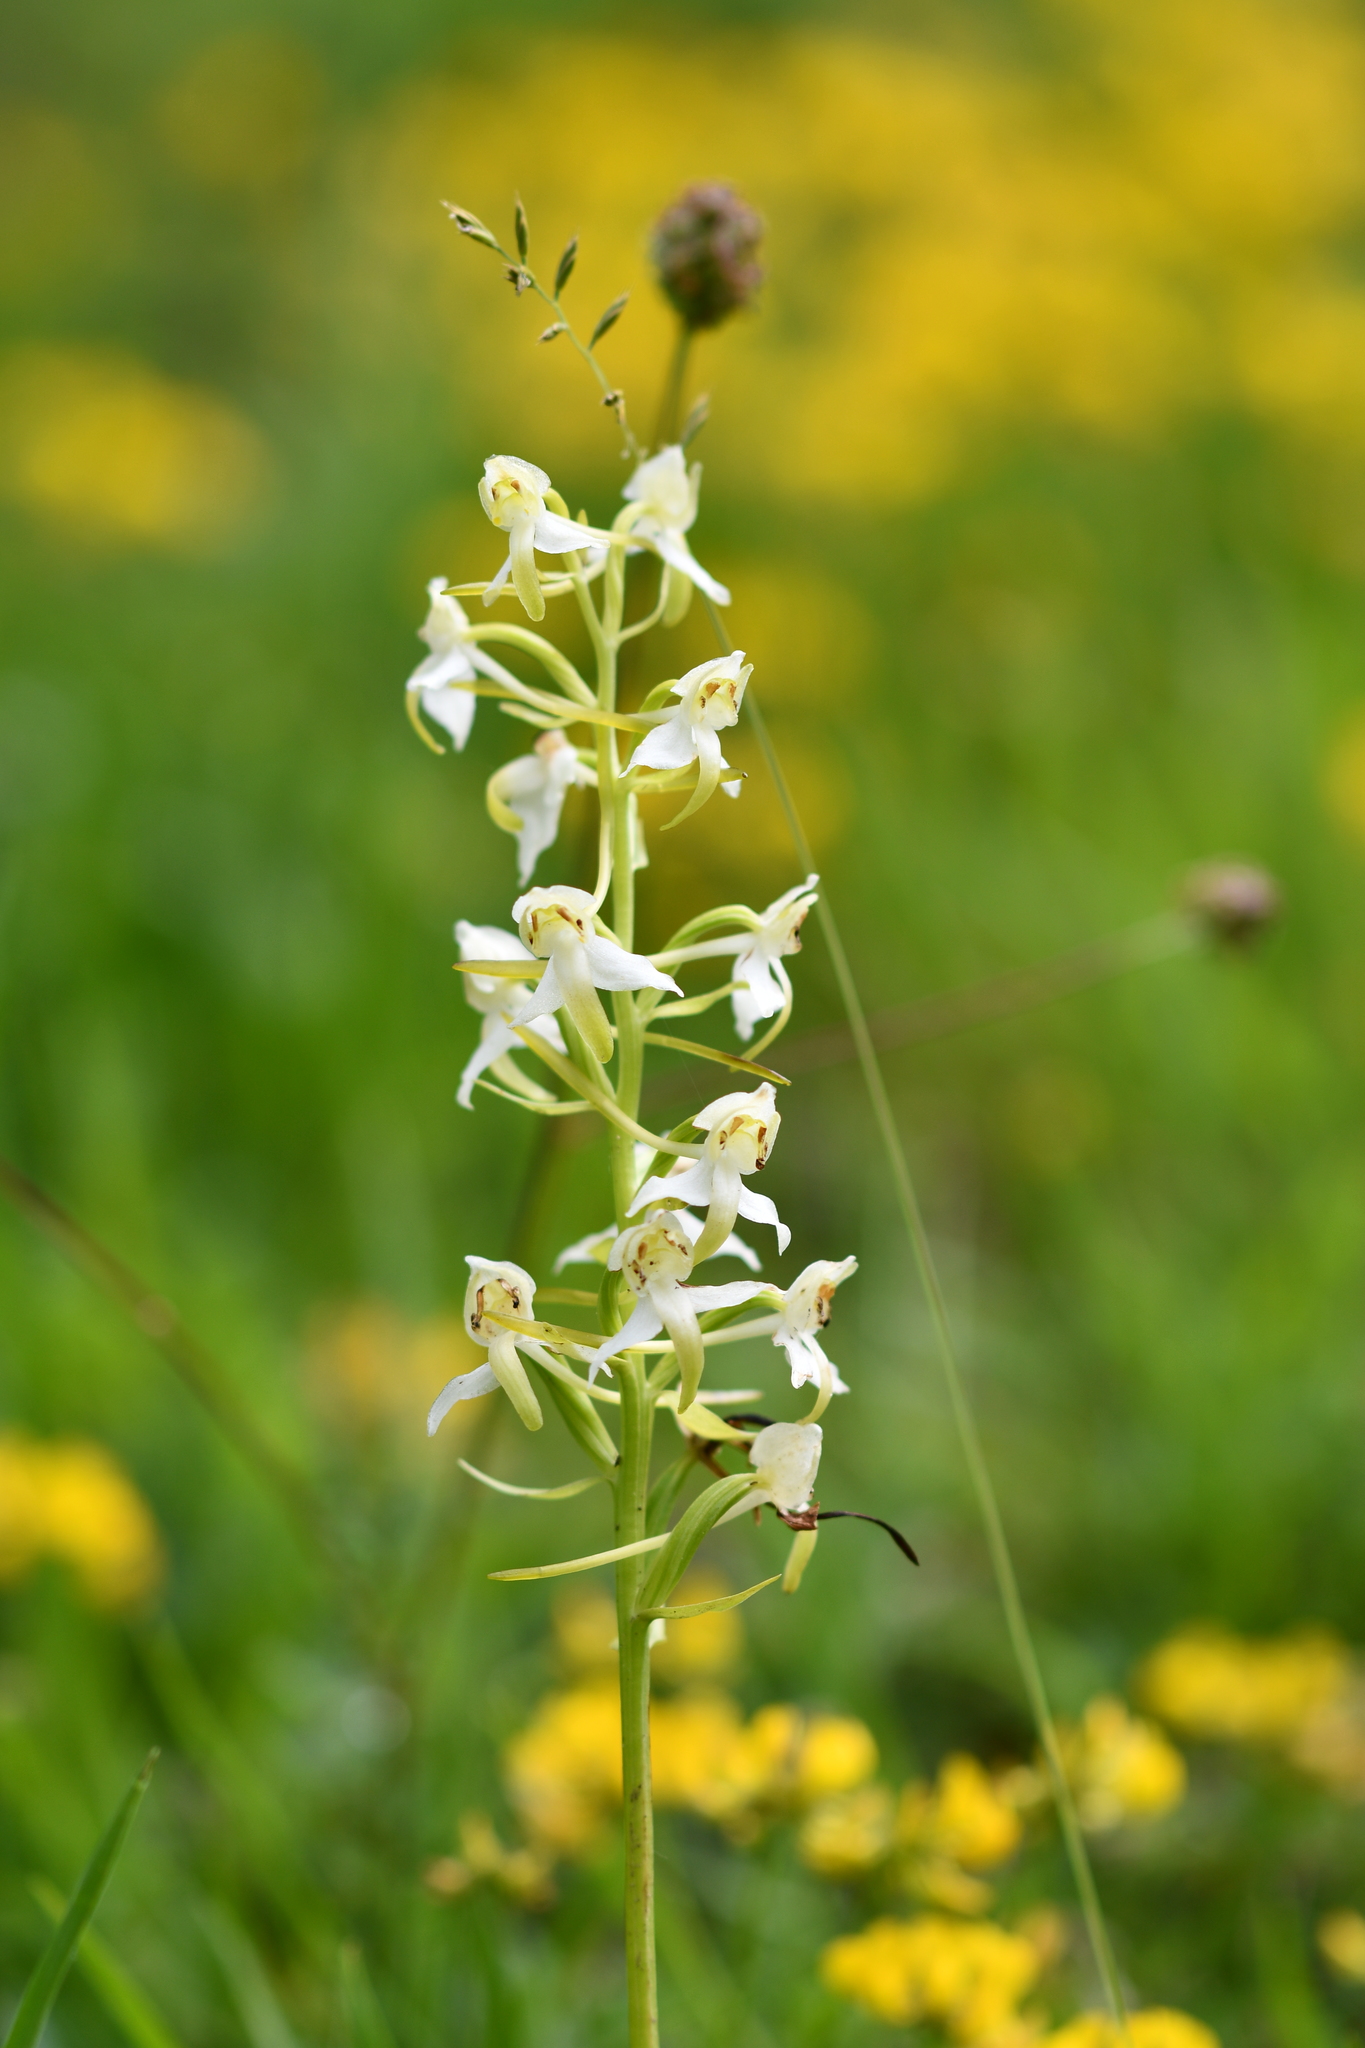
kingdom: Plantae
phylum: Tracheophyta
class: Liliopsida
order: Asparagales
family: Orchidaceae
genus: Platanthera
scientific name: Platanthera chlorantha
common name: Greater butterfly-orchid
